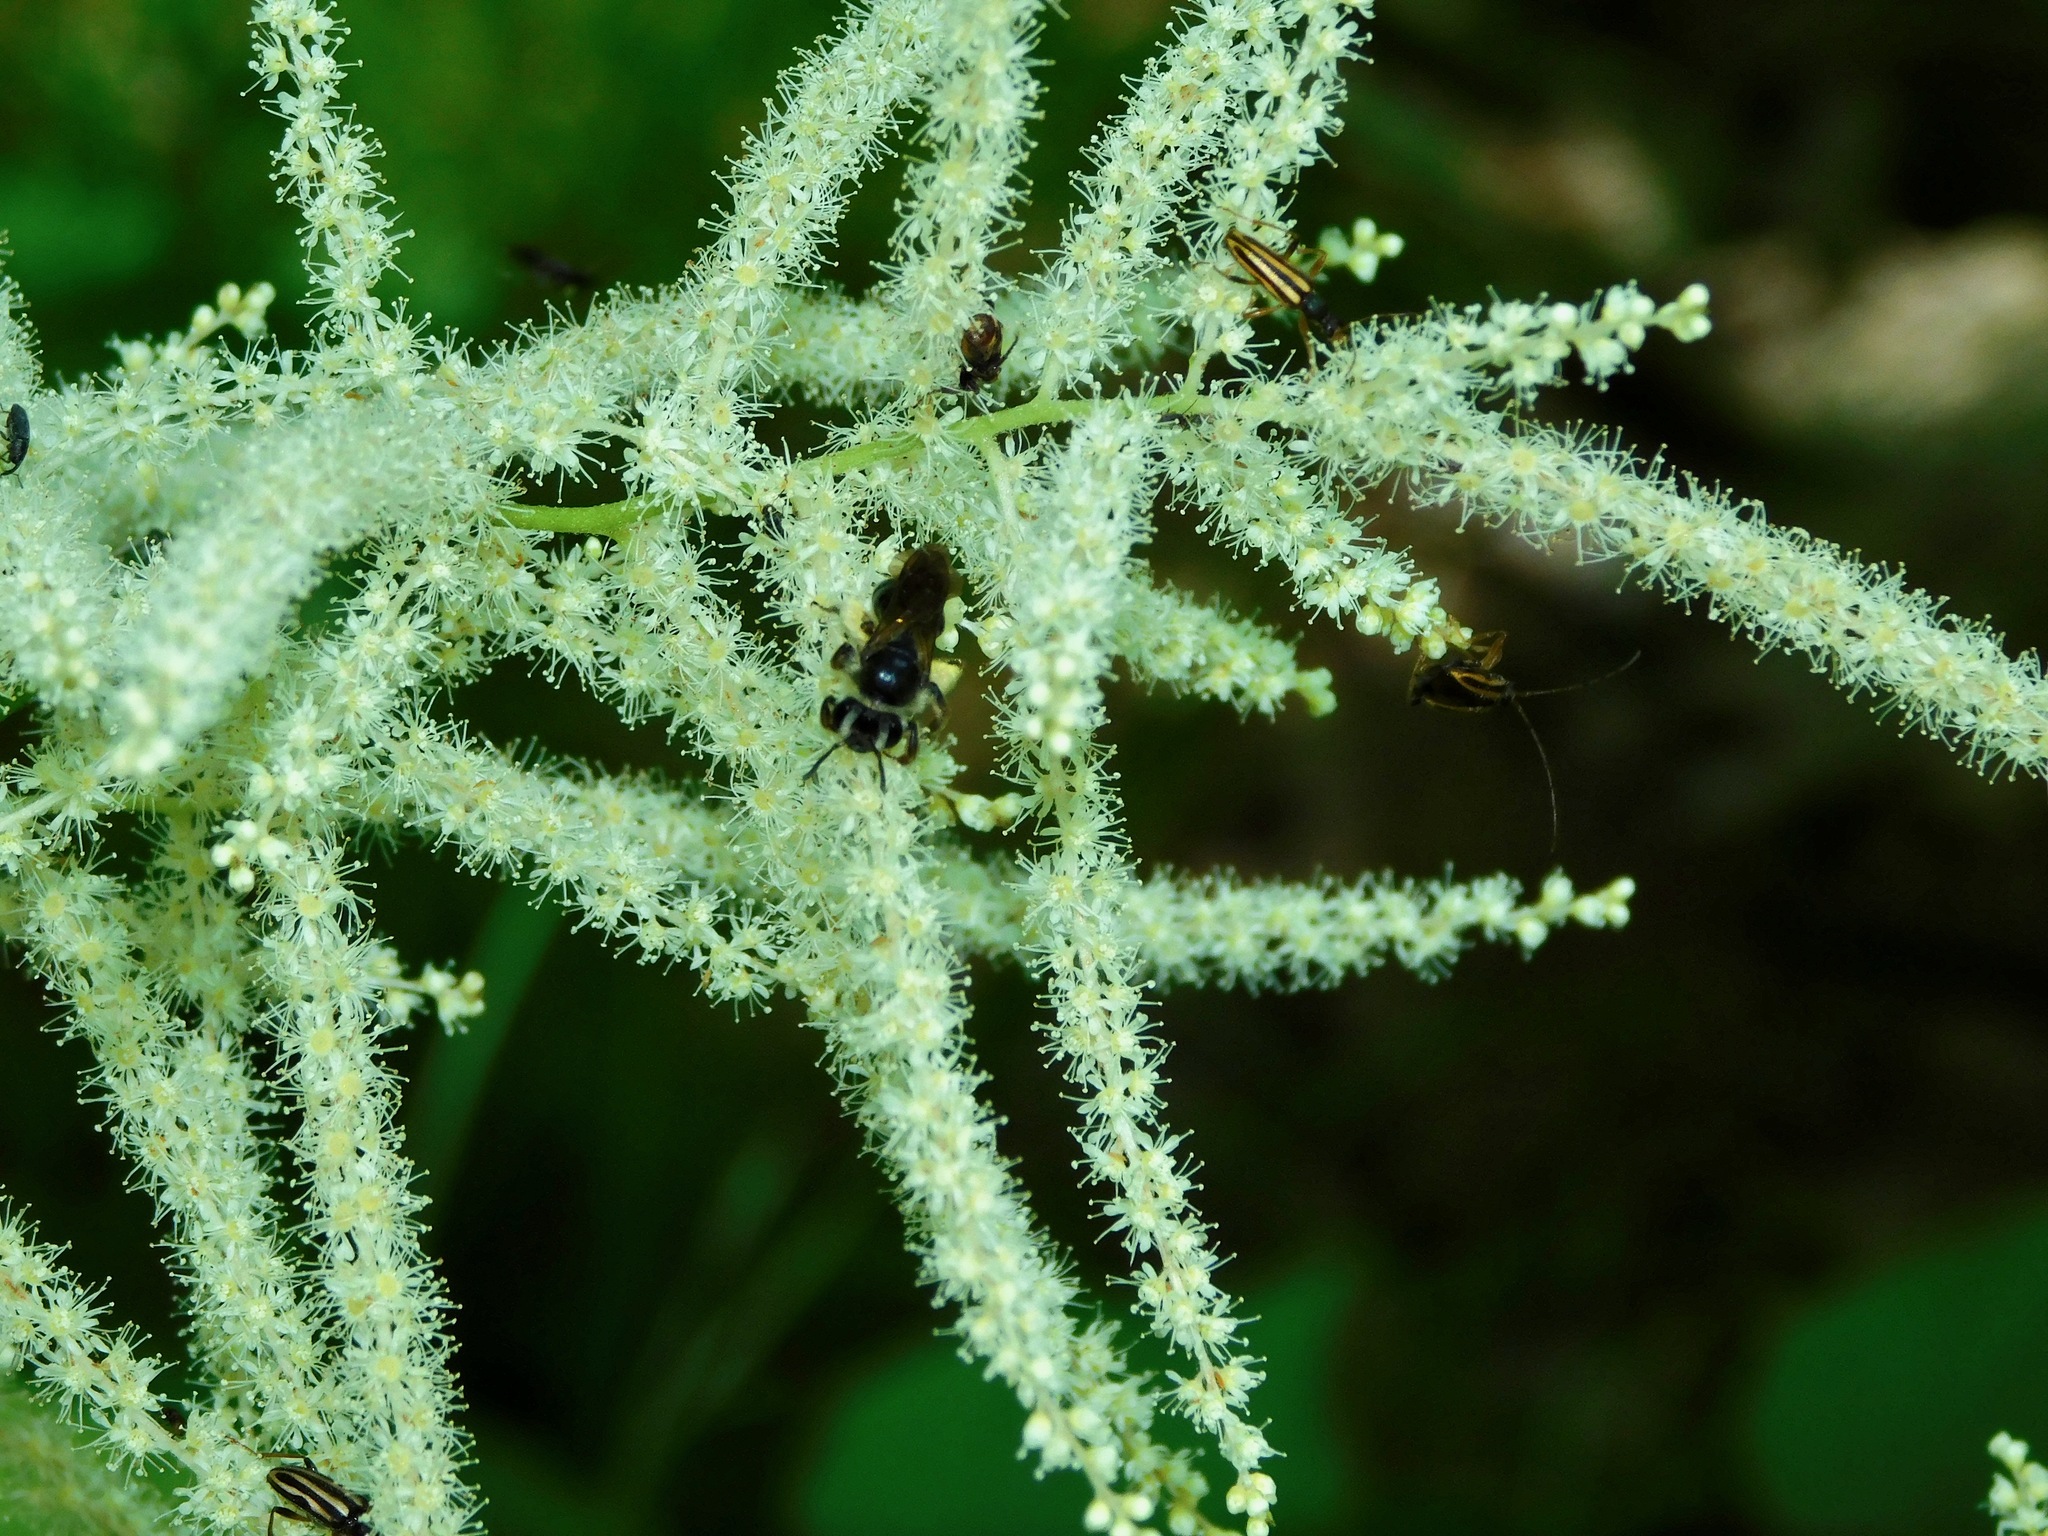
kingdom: Animalia
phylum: Arthropoda
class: Insecta
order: Hymenoptera
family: Andrenidae
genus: Andrena
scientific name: Andrena crataegi
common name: Hawthorn mining bee
